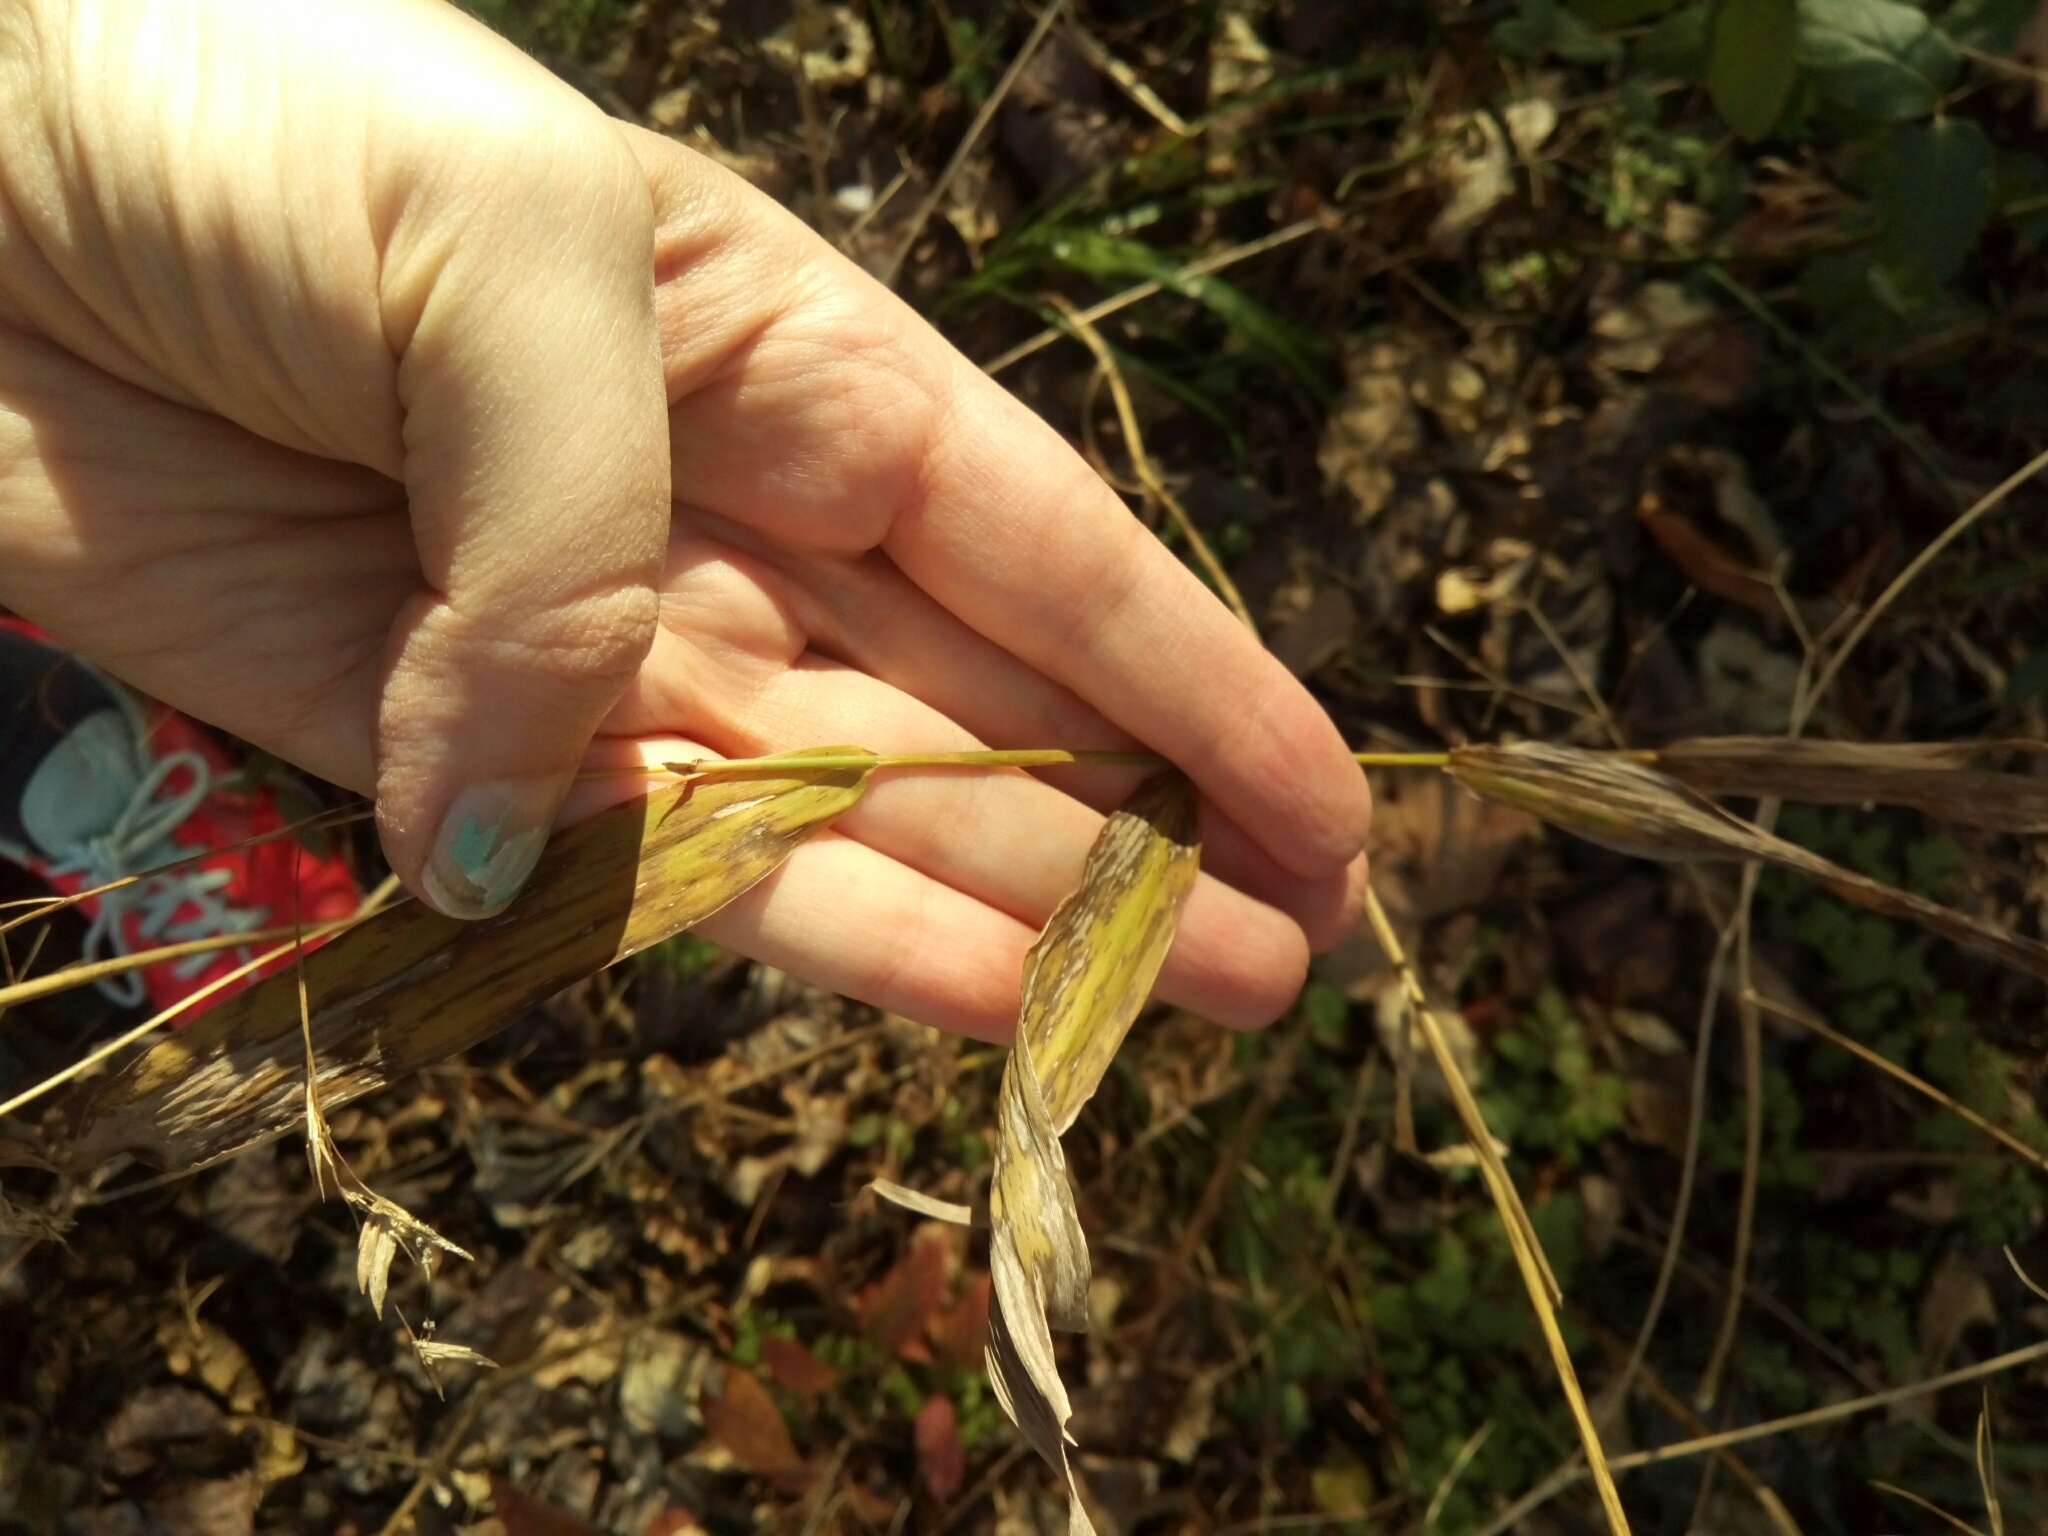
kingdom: Plantae
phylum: Tracheophyta
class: Liliopsida
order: Poales
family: Poaceae
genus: Chasmanthium
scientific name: Chasmanthium latifolium
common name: Broad-leaved chasmanthium
